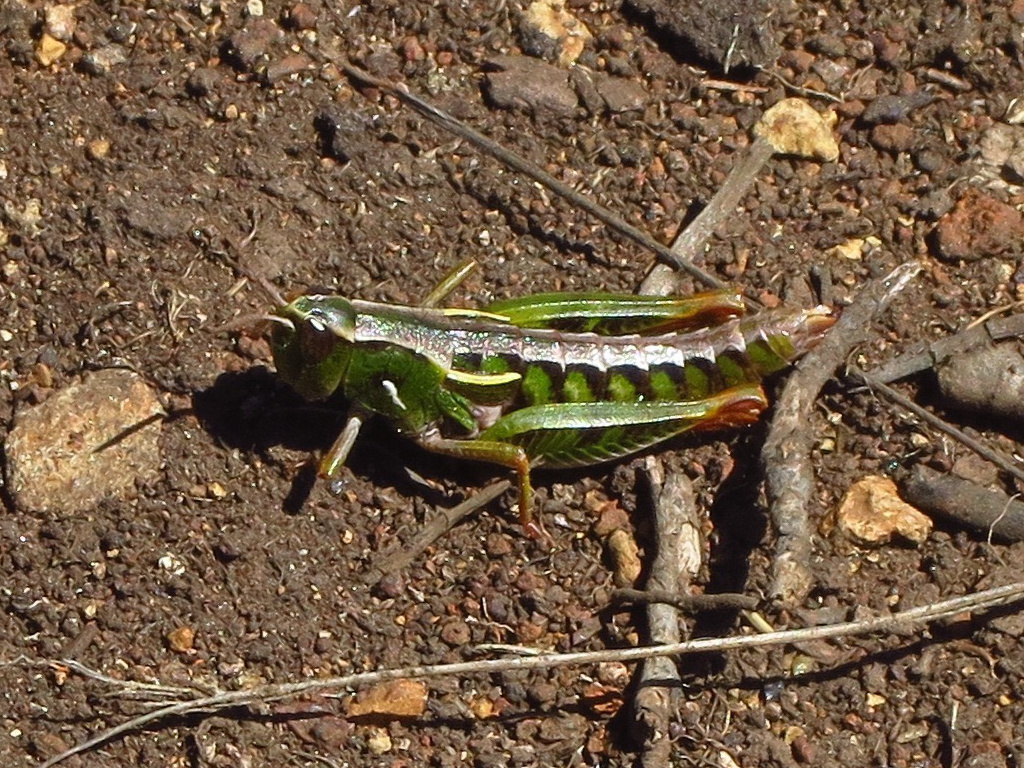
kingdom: Animalia
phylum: Arthropoda
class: Insecta
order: Orthoptera
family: Acrididae
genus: Russalpia
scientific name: Russalpia albertisi
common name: Tassie hopper
